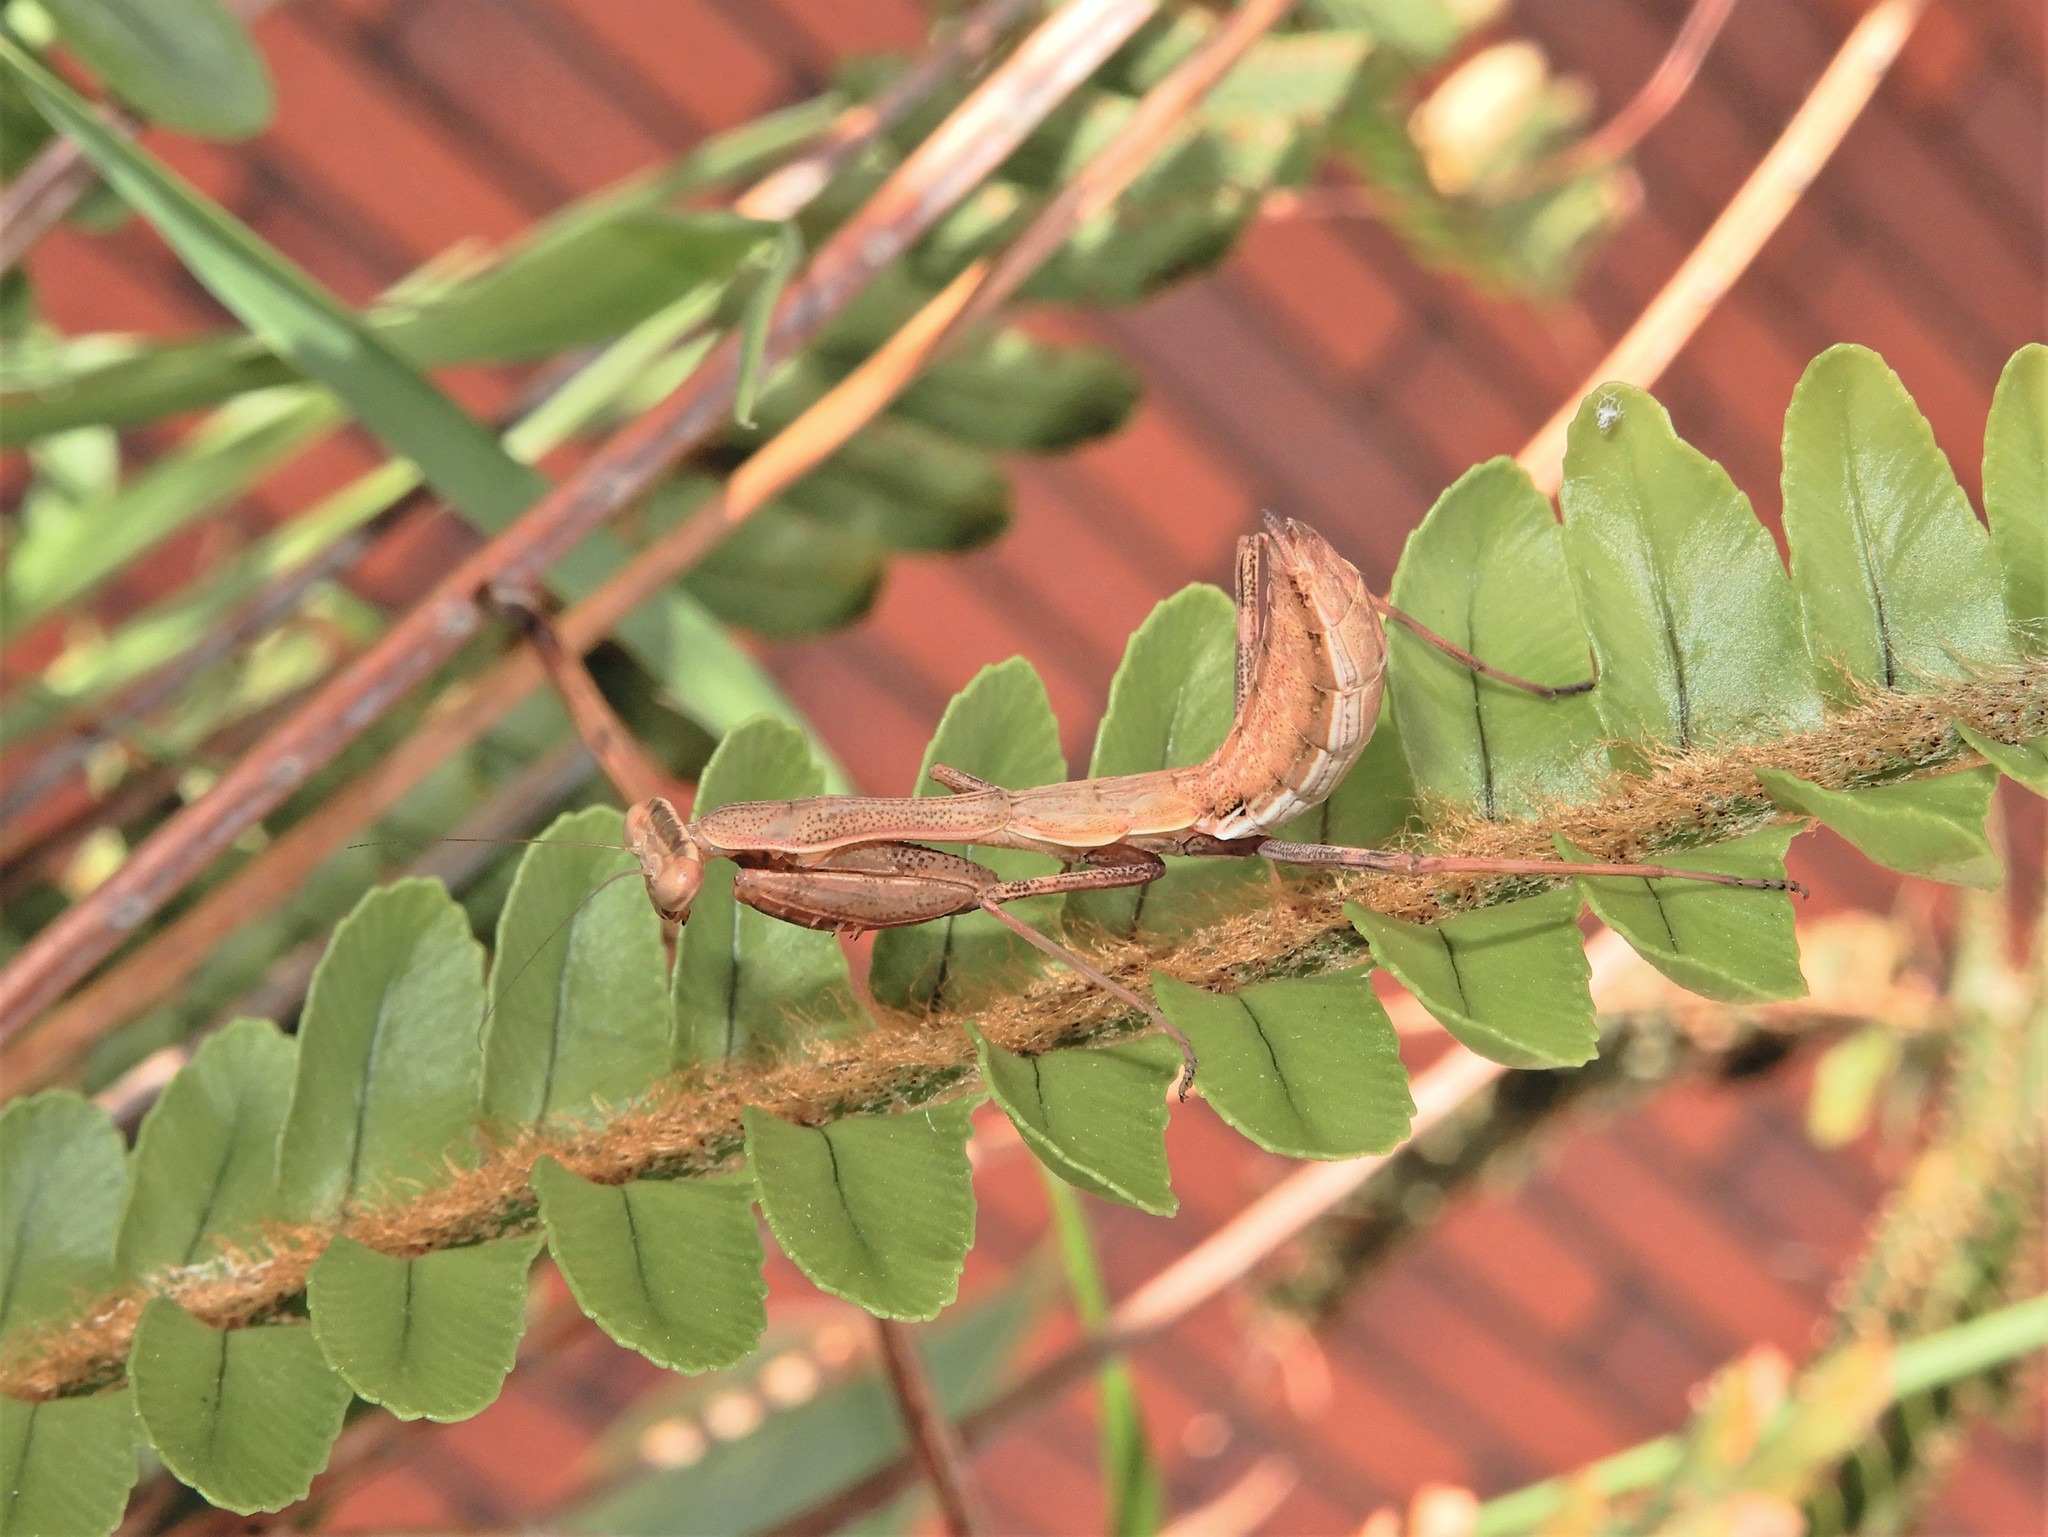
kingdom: Animalia
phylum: Arthropoda
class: Insecta
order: Mantodea
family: Miomantidae
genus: Miomantis
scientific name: Miomantis caffra
